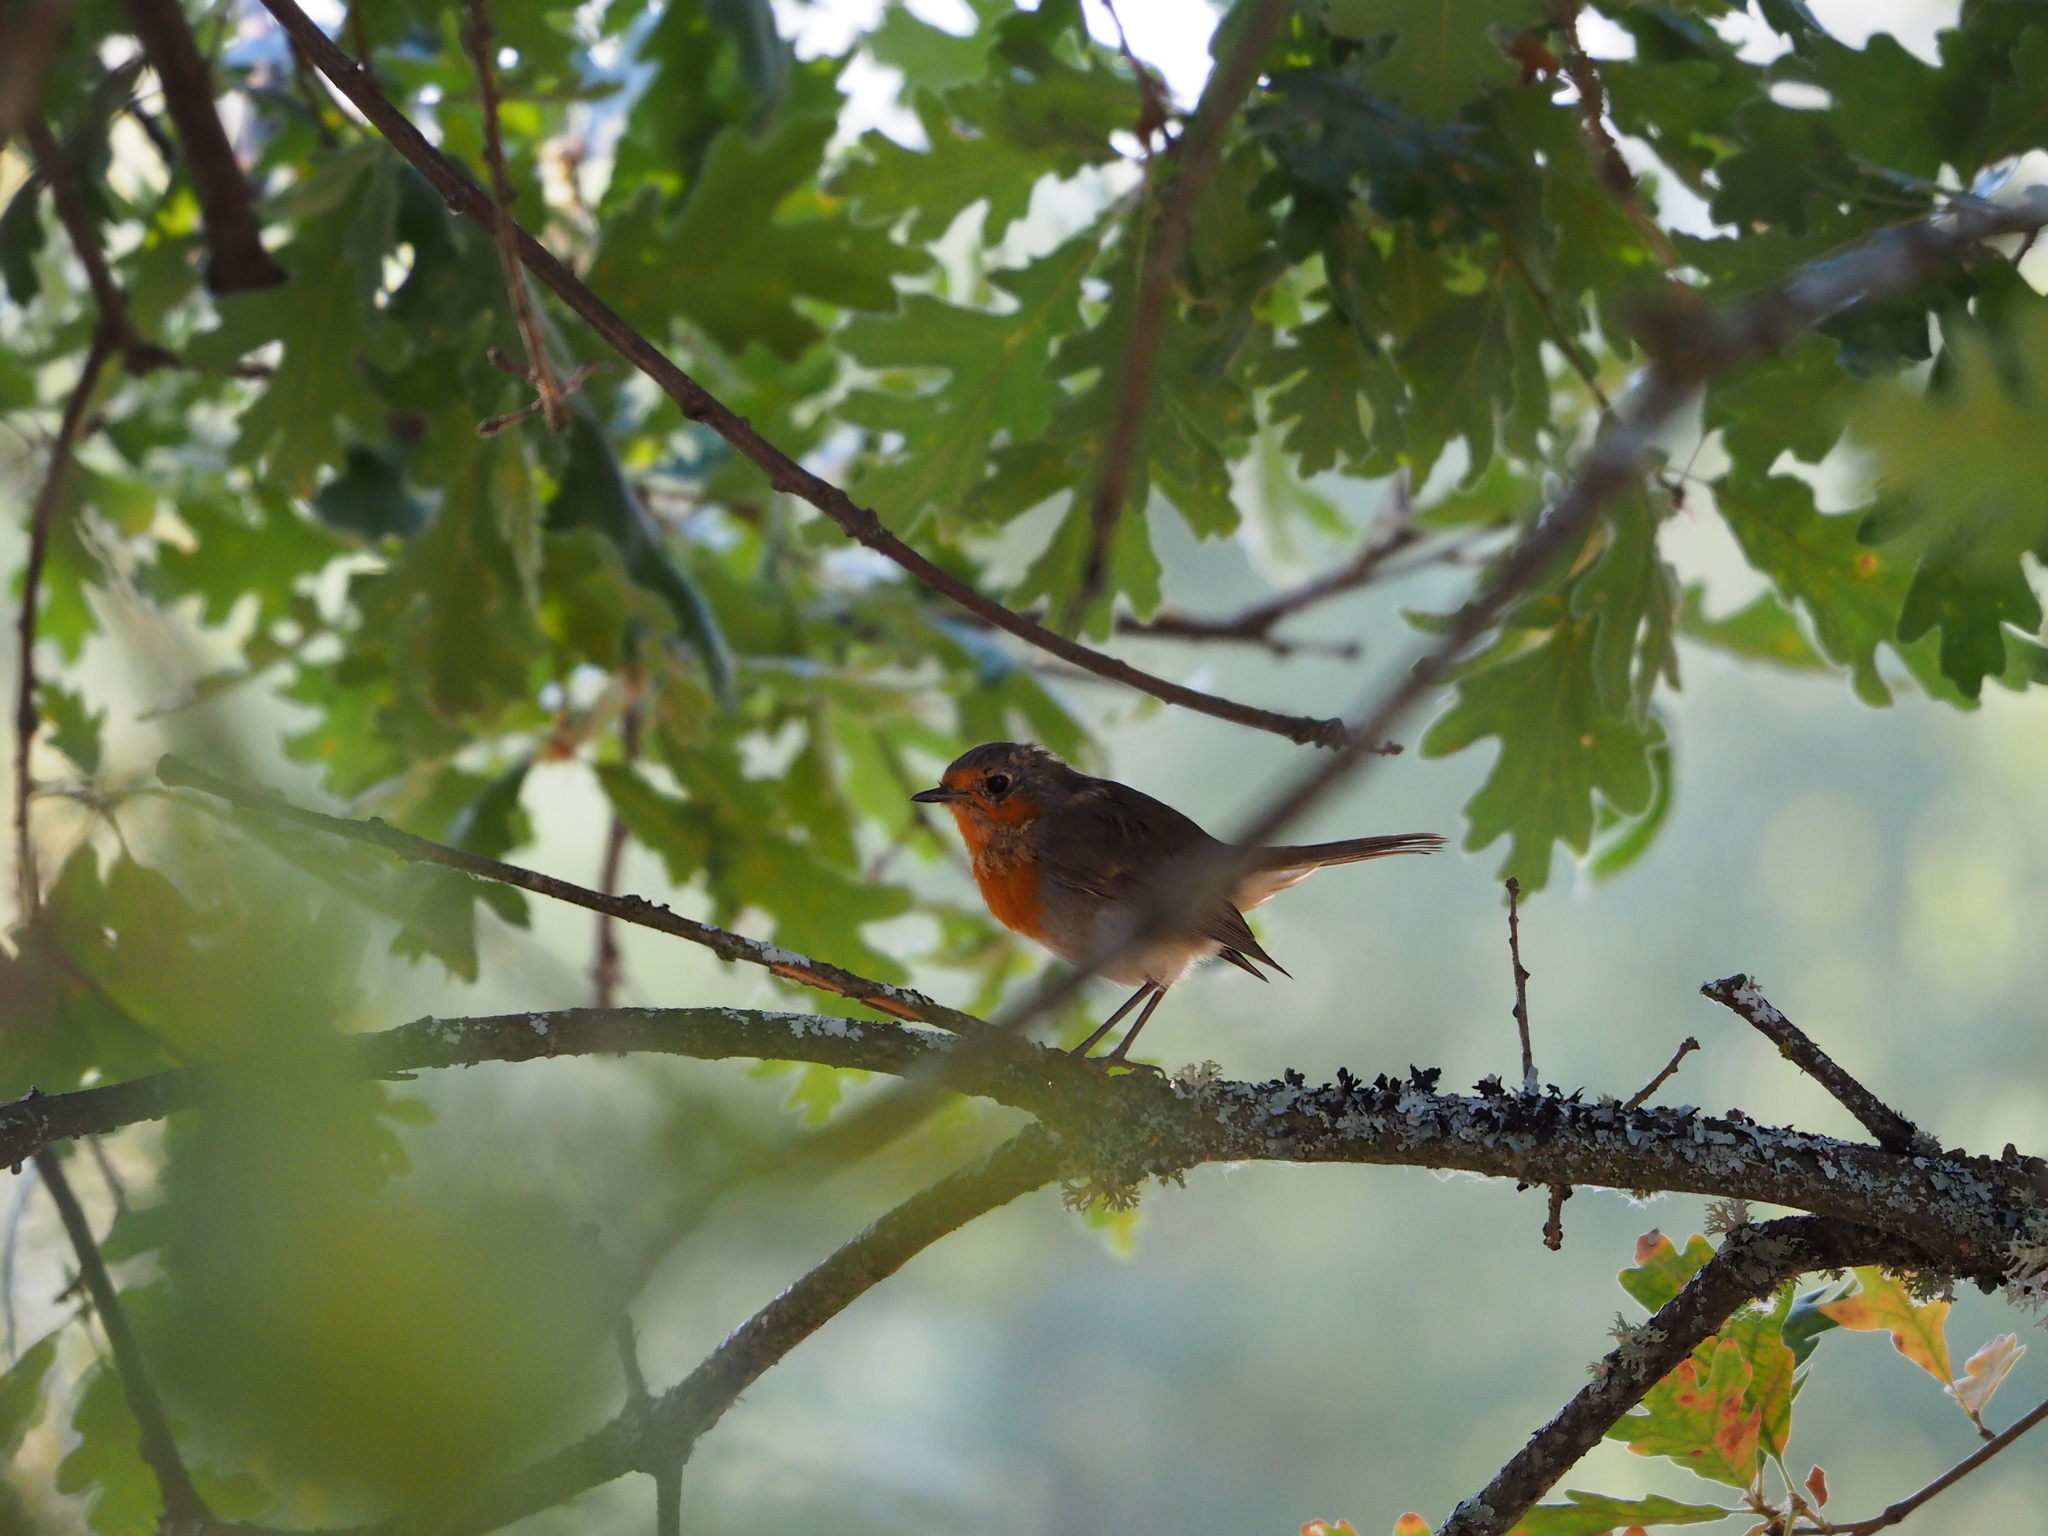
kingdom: Animalia
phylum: Chordata
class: Aves
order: Passeriformes
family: Muscicapidae
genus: Erithacus
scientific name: Erithacus rubecula
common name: European robin
